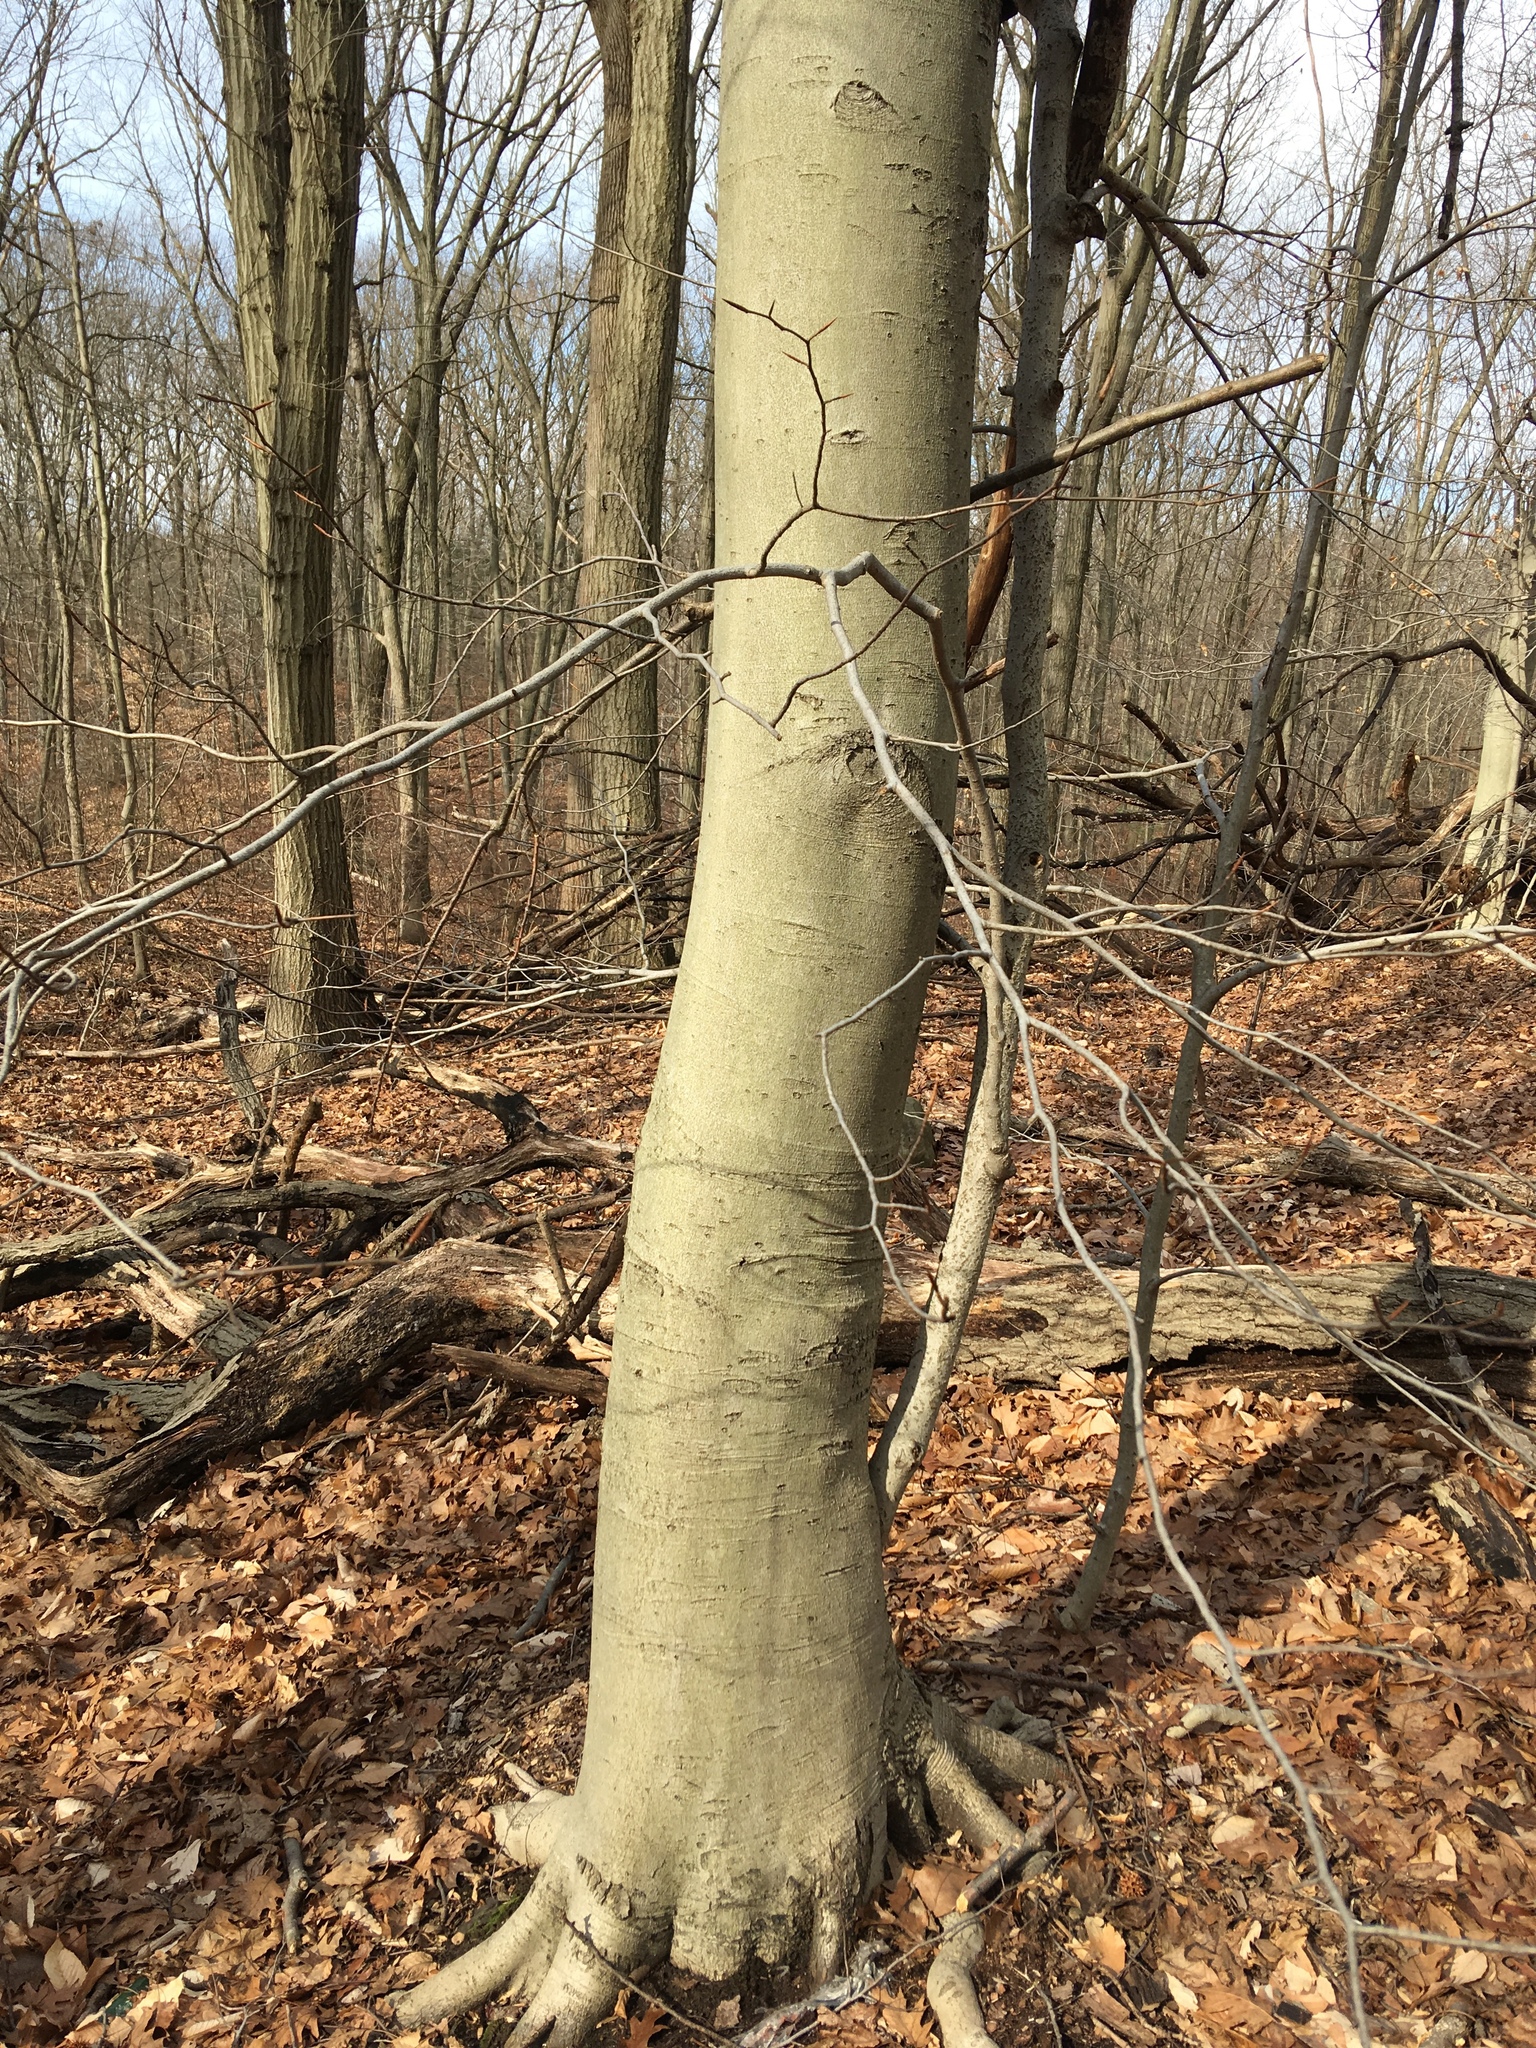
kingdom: Plantae
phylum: Tracheophyta
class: Magnoliopsida
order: Fagales
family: Fagaceae
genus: Fagus
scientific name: Fagus grandifolia
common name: American beech
